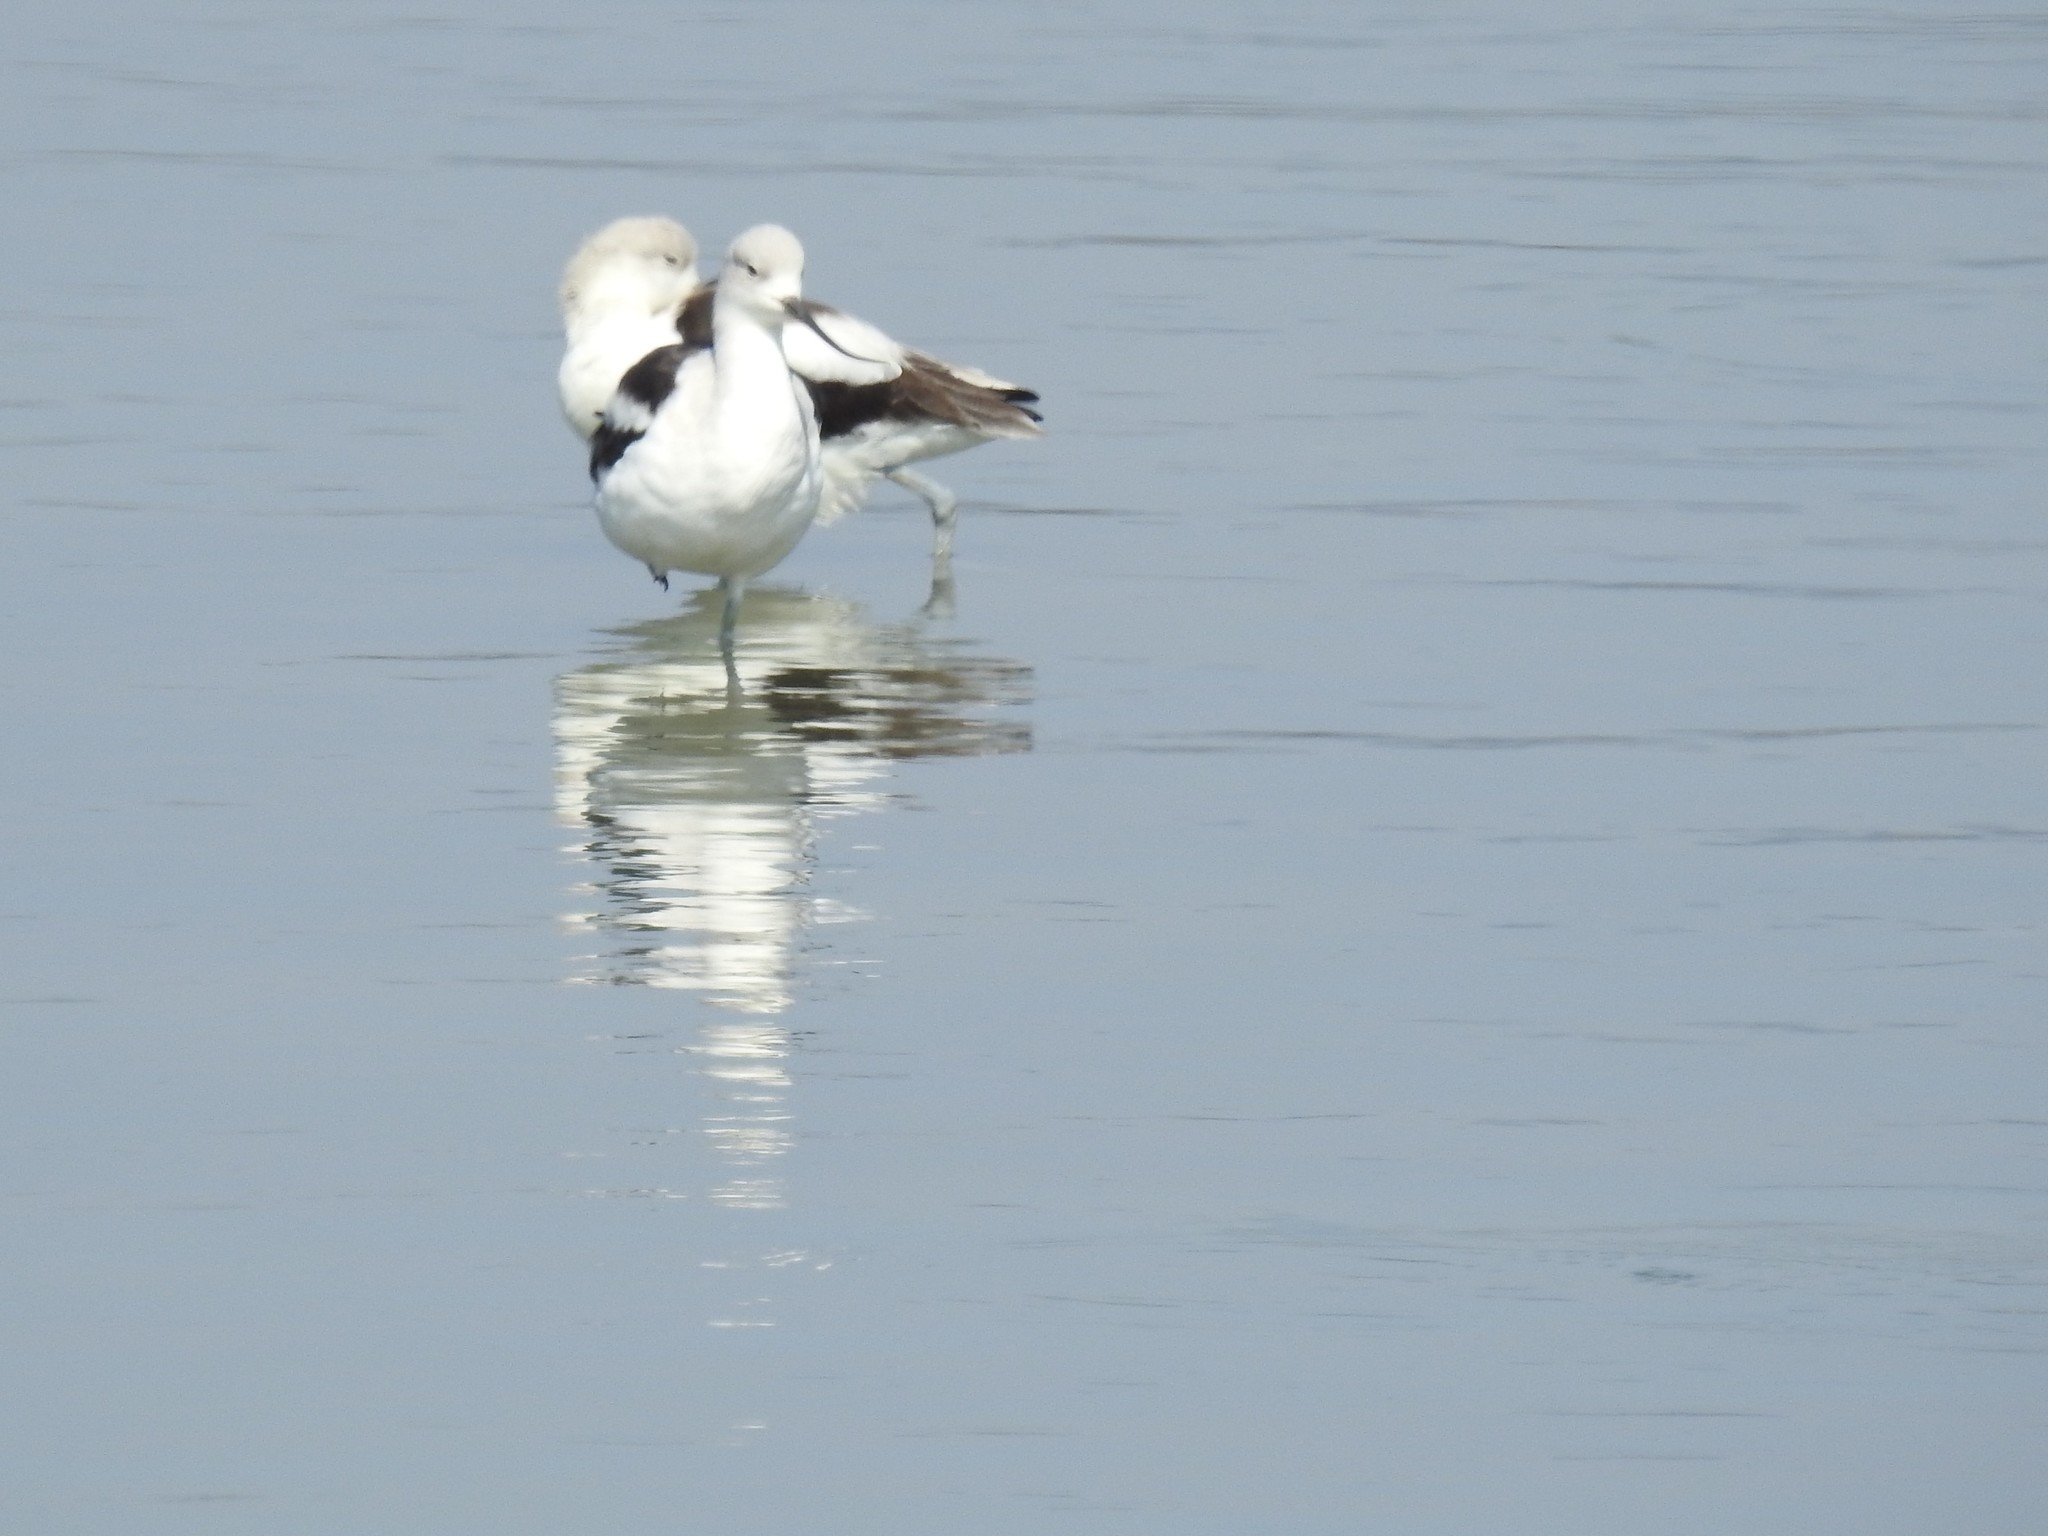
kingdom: Animalia
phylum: Chordata
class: Aves
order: Charadriiformes
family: Recurvirostridae
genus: Recurvirostra
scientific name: Recurvirostra americana
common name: American avocet
